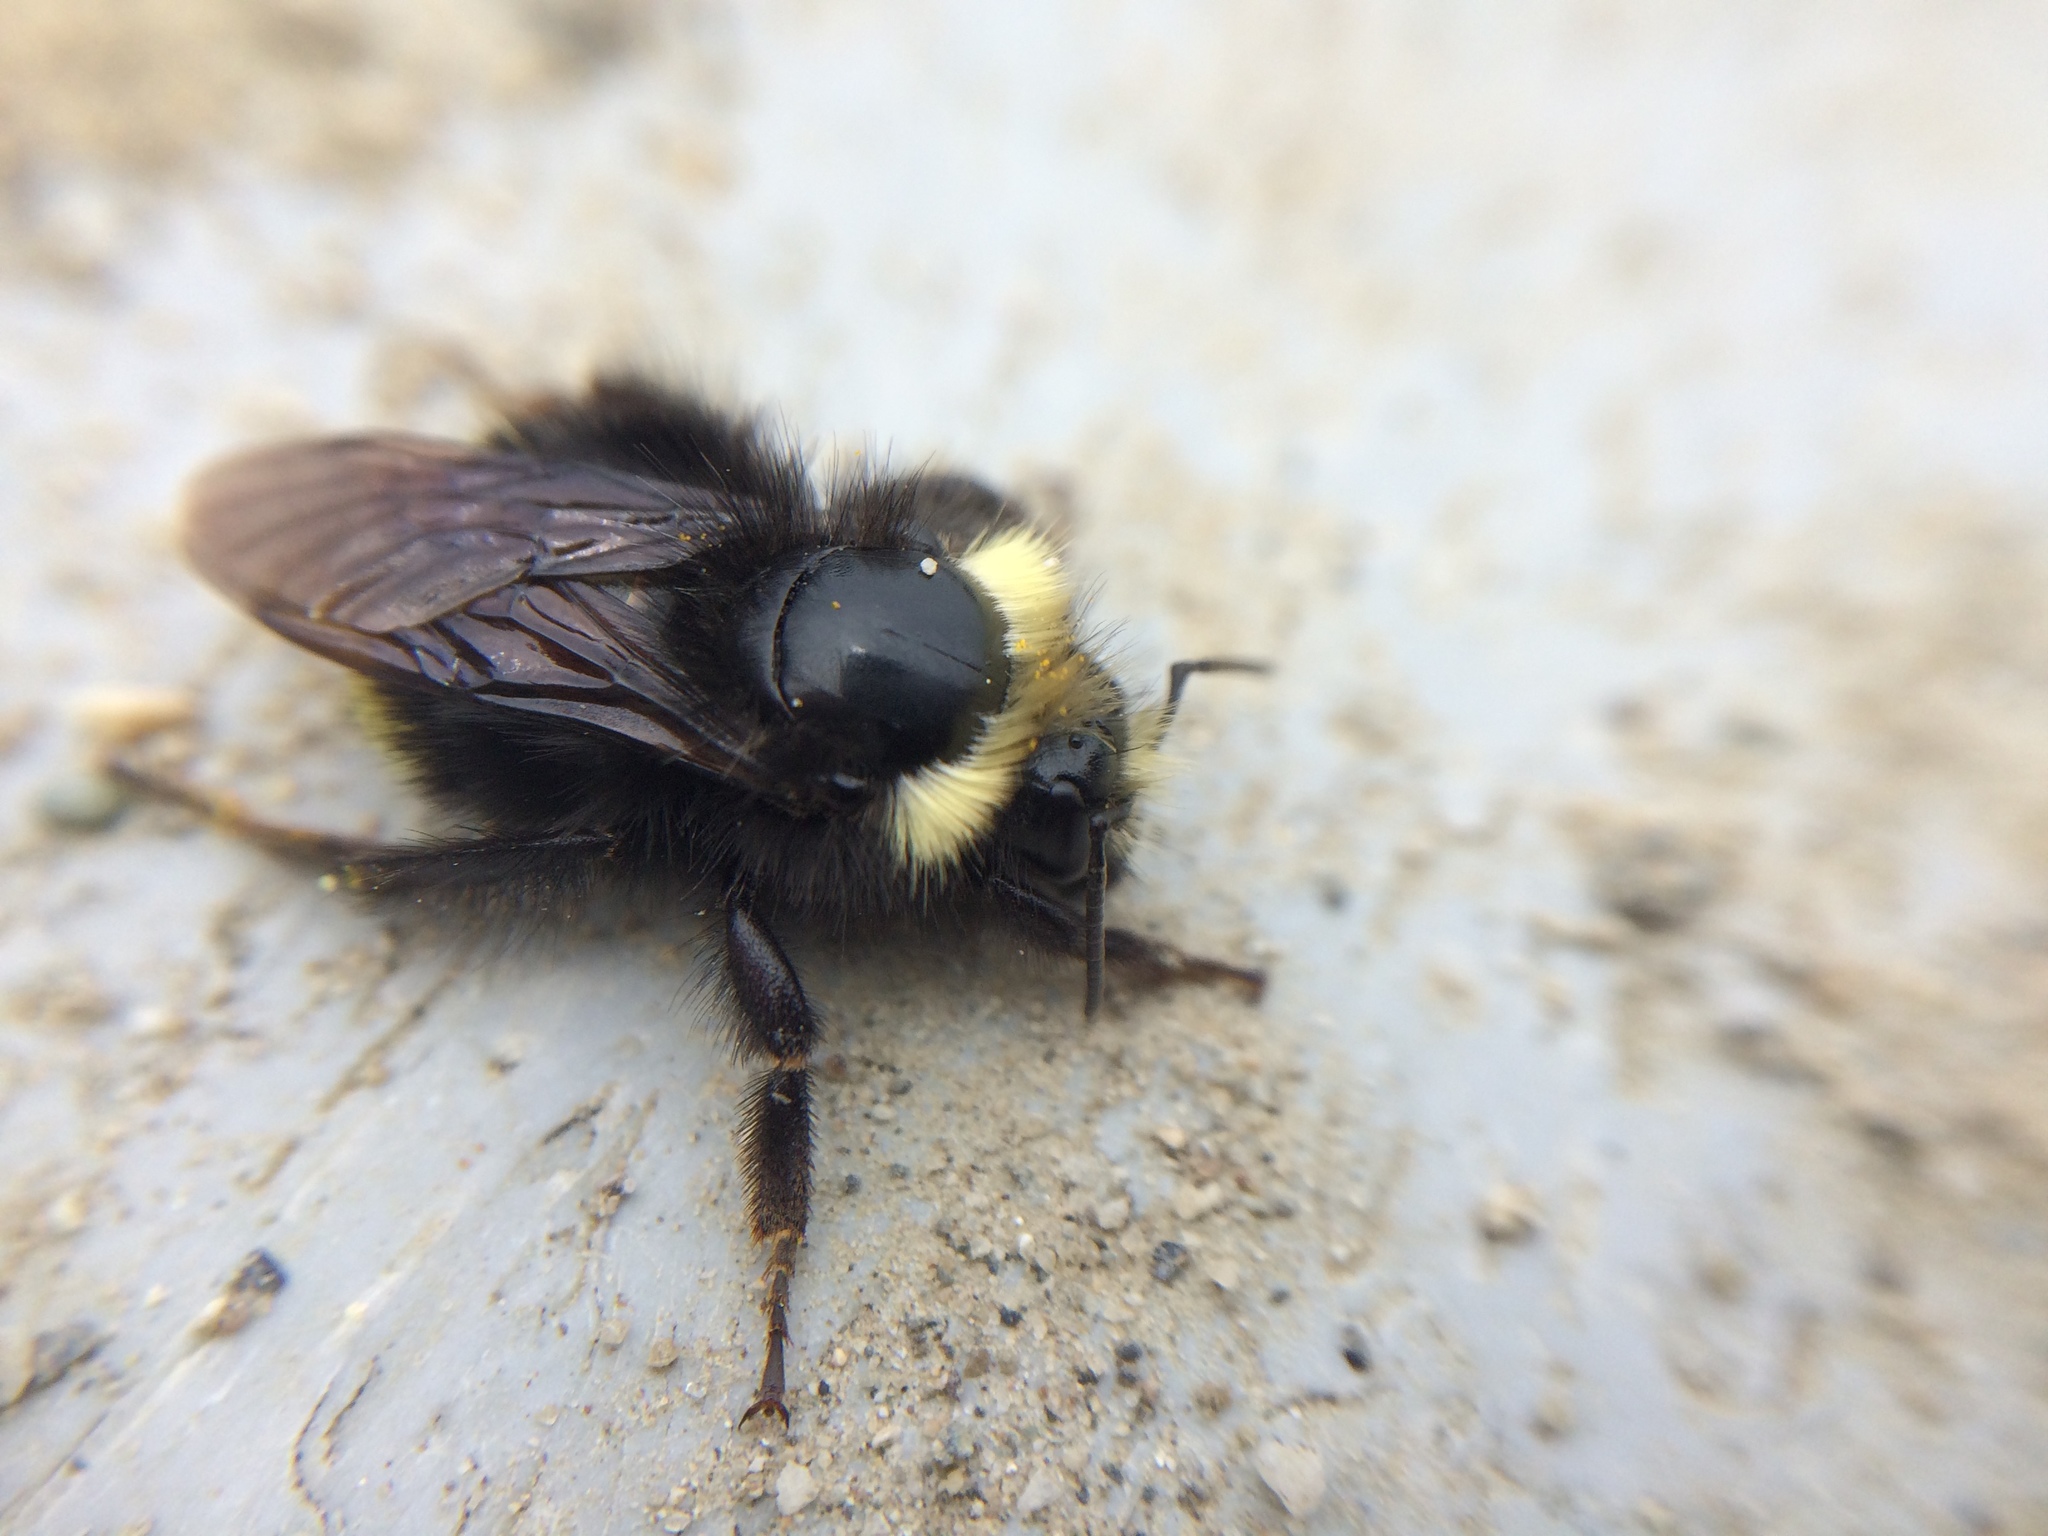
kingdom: Animalia
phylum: Arthropoda
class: Insecta
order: Hymenoptera
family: Apidae
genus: Bombus
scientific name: Bombus vosnesenskii
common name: Vosnesensky bumble bee
